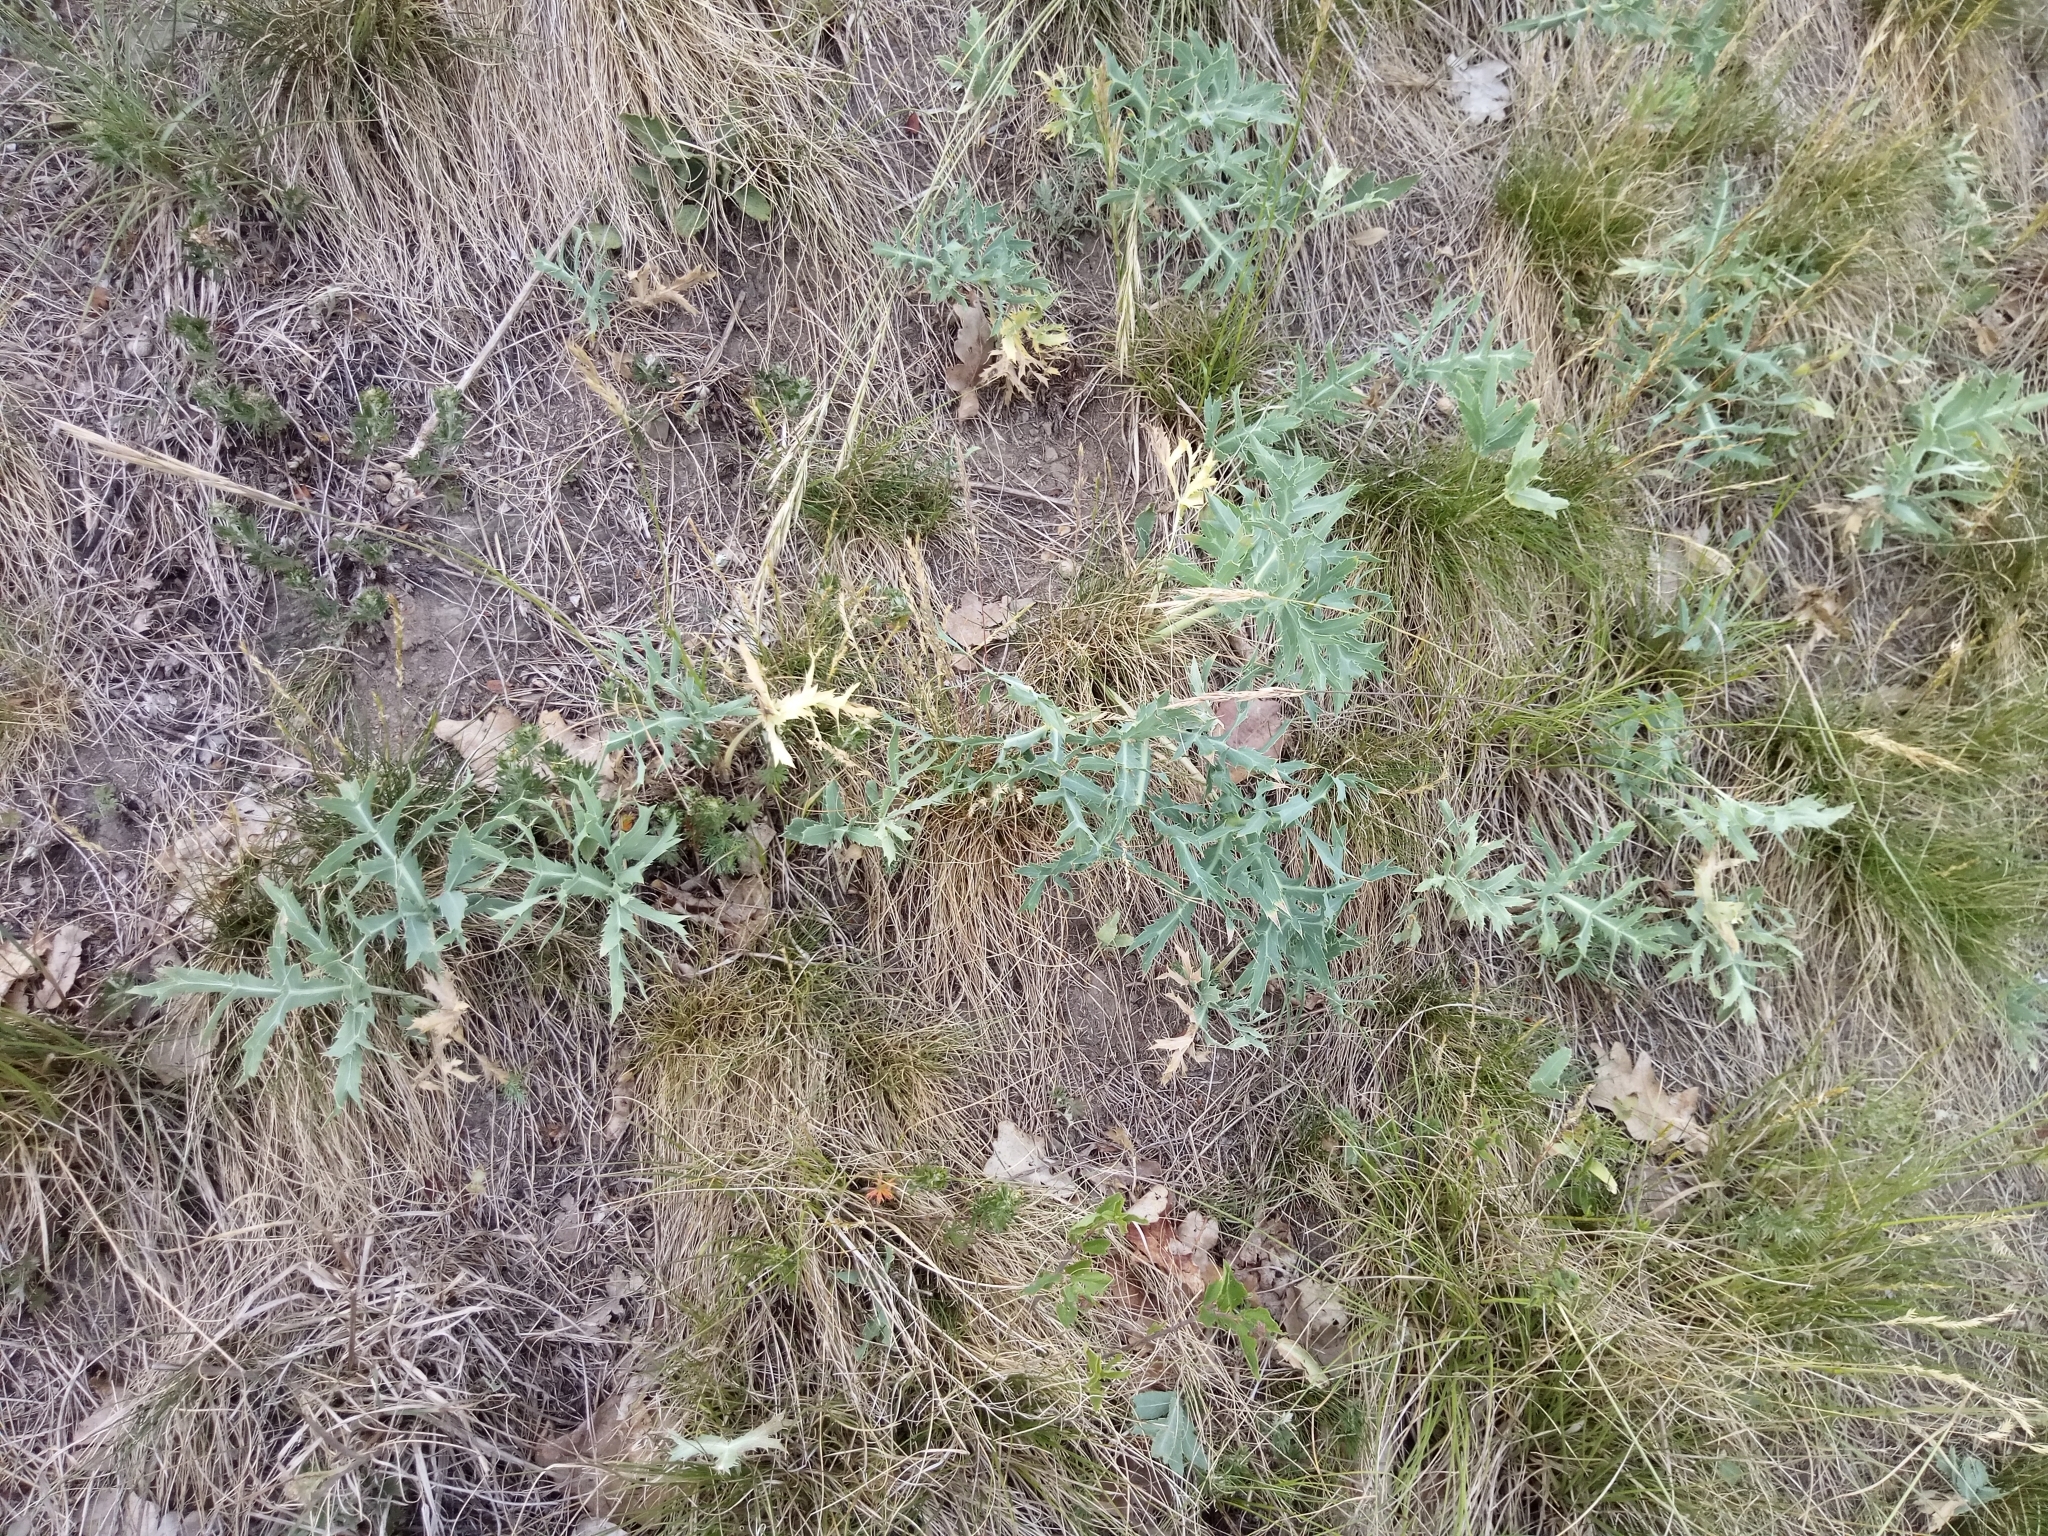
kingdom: Plantae
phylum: Tracheophyta
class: Magnoliopsida
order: Apiales
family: Apiaceae
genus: Eryngium
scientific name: Eryngium campestre
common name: Field eryngo
